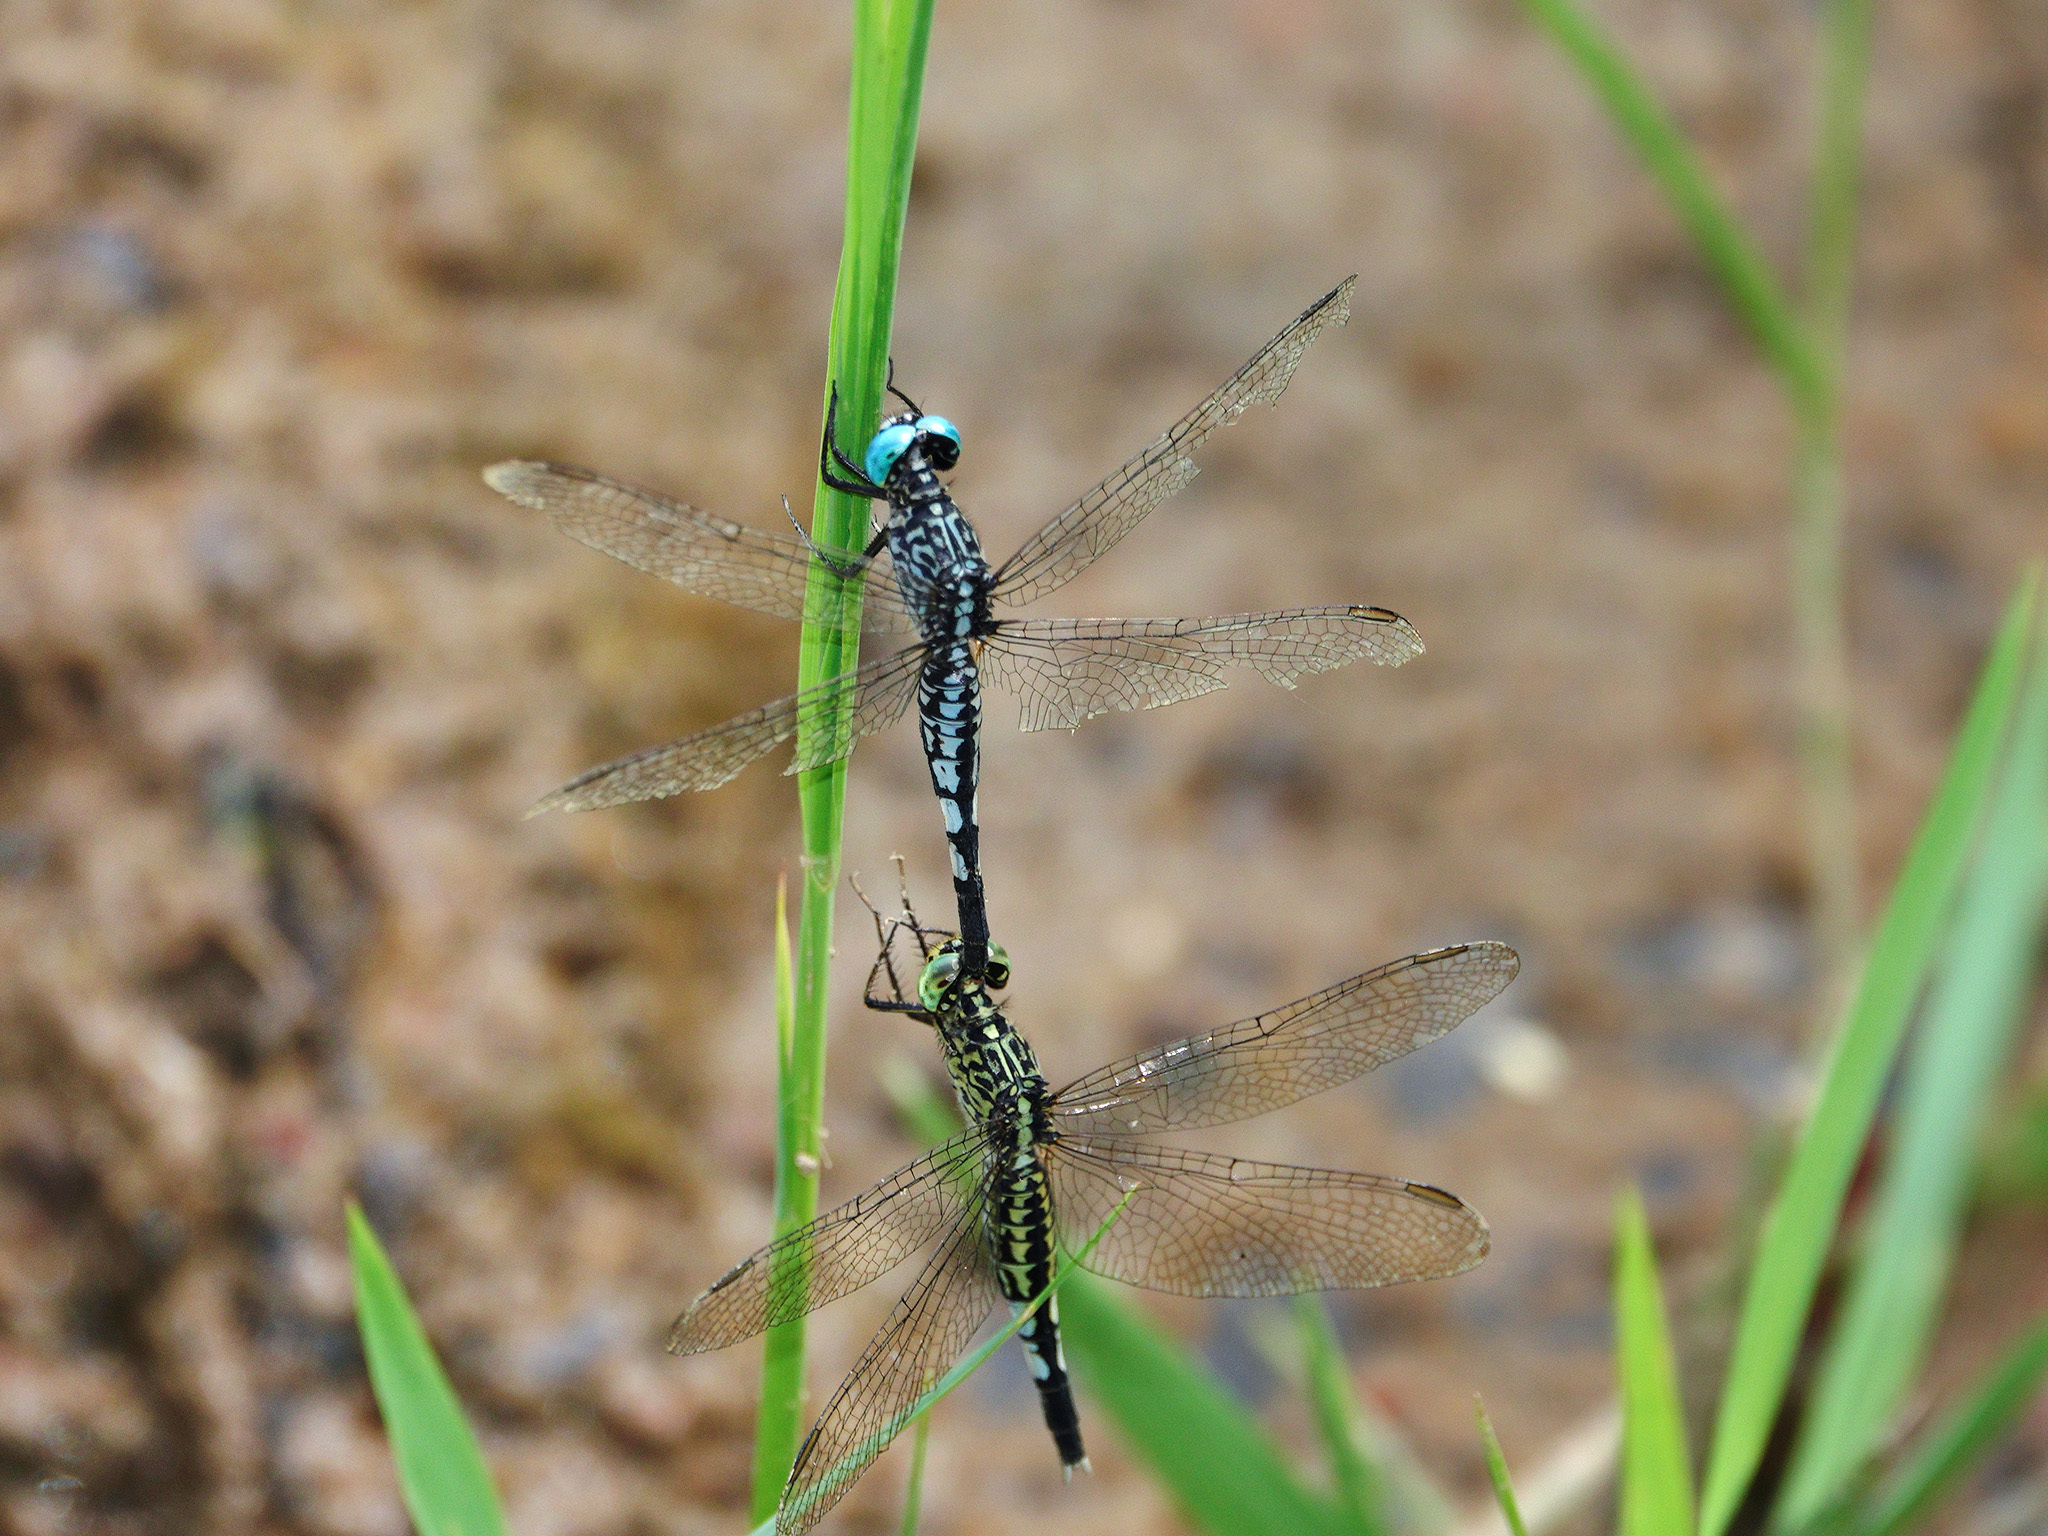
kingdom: Animalia
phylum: Arthropoda
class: Insecta
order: Odonata
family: Libellulidae
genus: Acisoma
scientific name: Acisoma panorpoides
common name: Asian pintail
